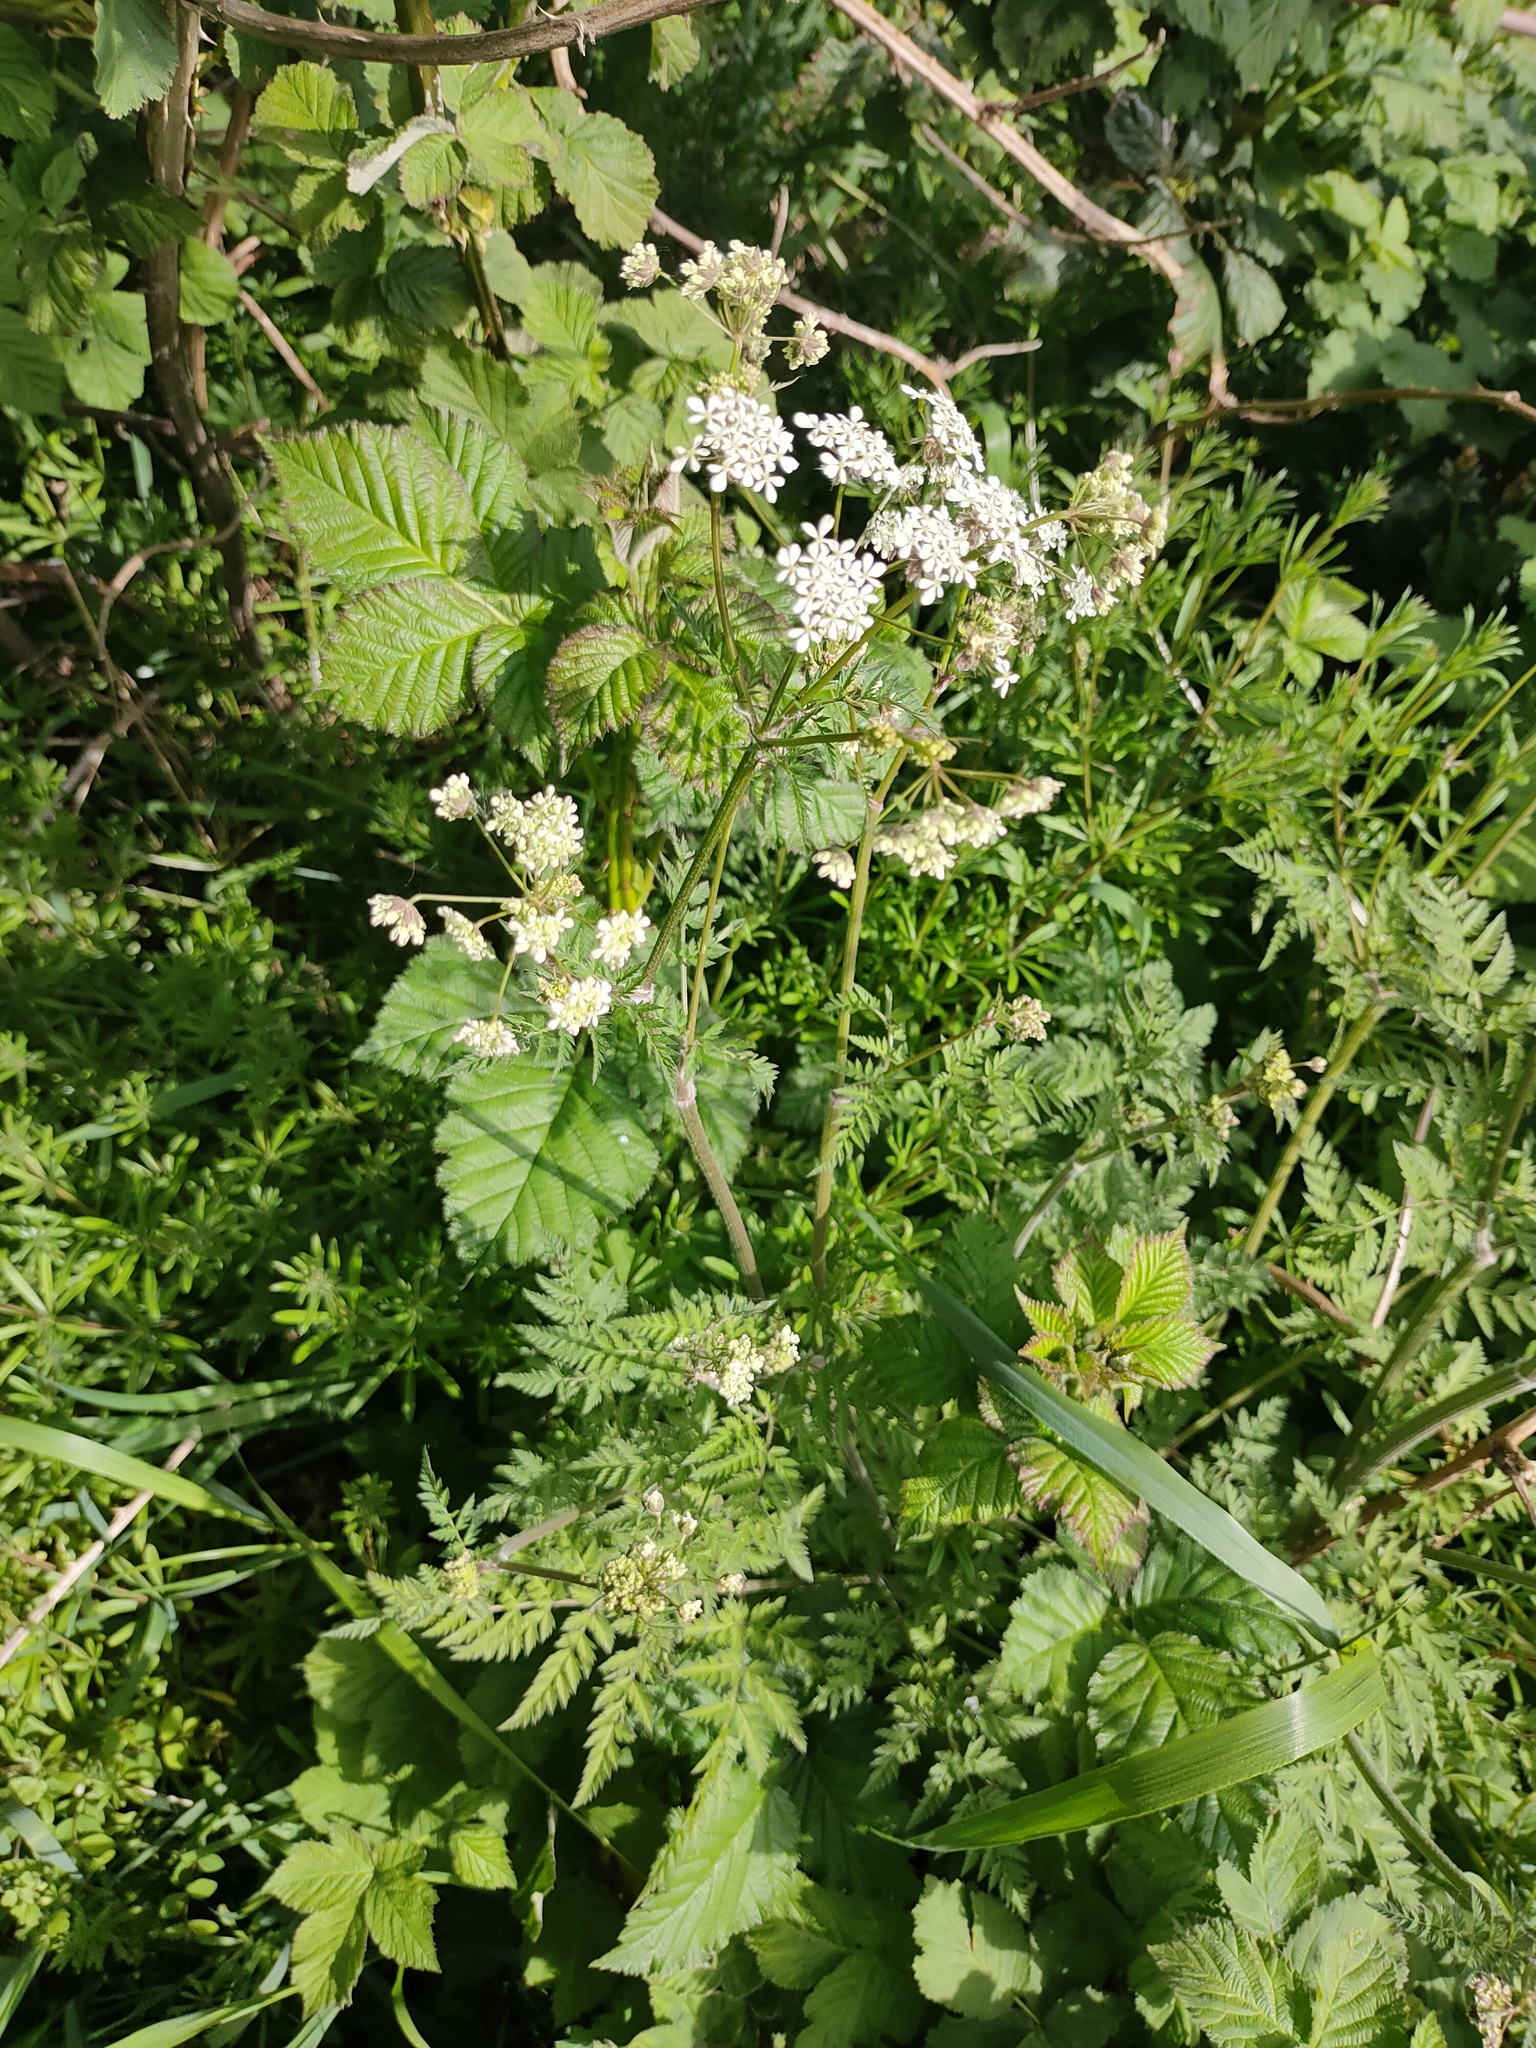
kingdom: Plantae
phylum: Tracheophyta
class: Magnoliopsida
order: Apiales
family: Apiaceae
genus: Anthriscus
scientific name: Anthriscus sylvestris
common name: Cow parsley
